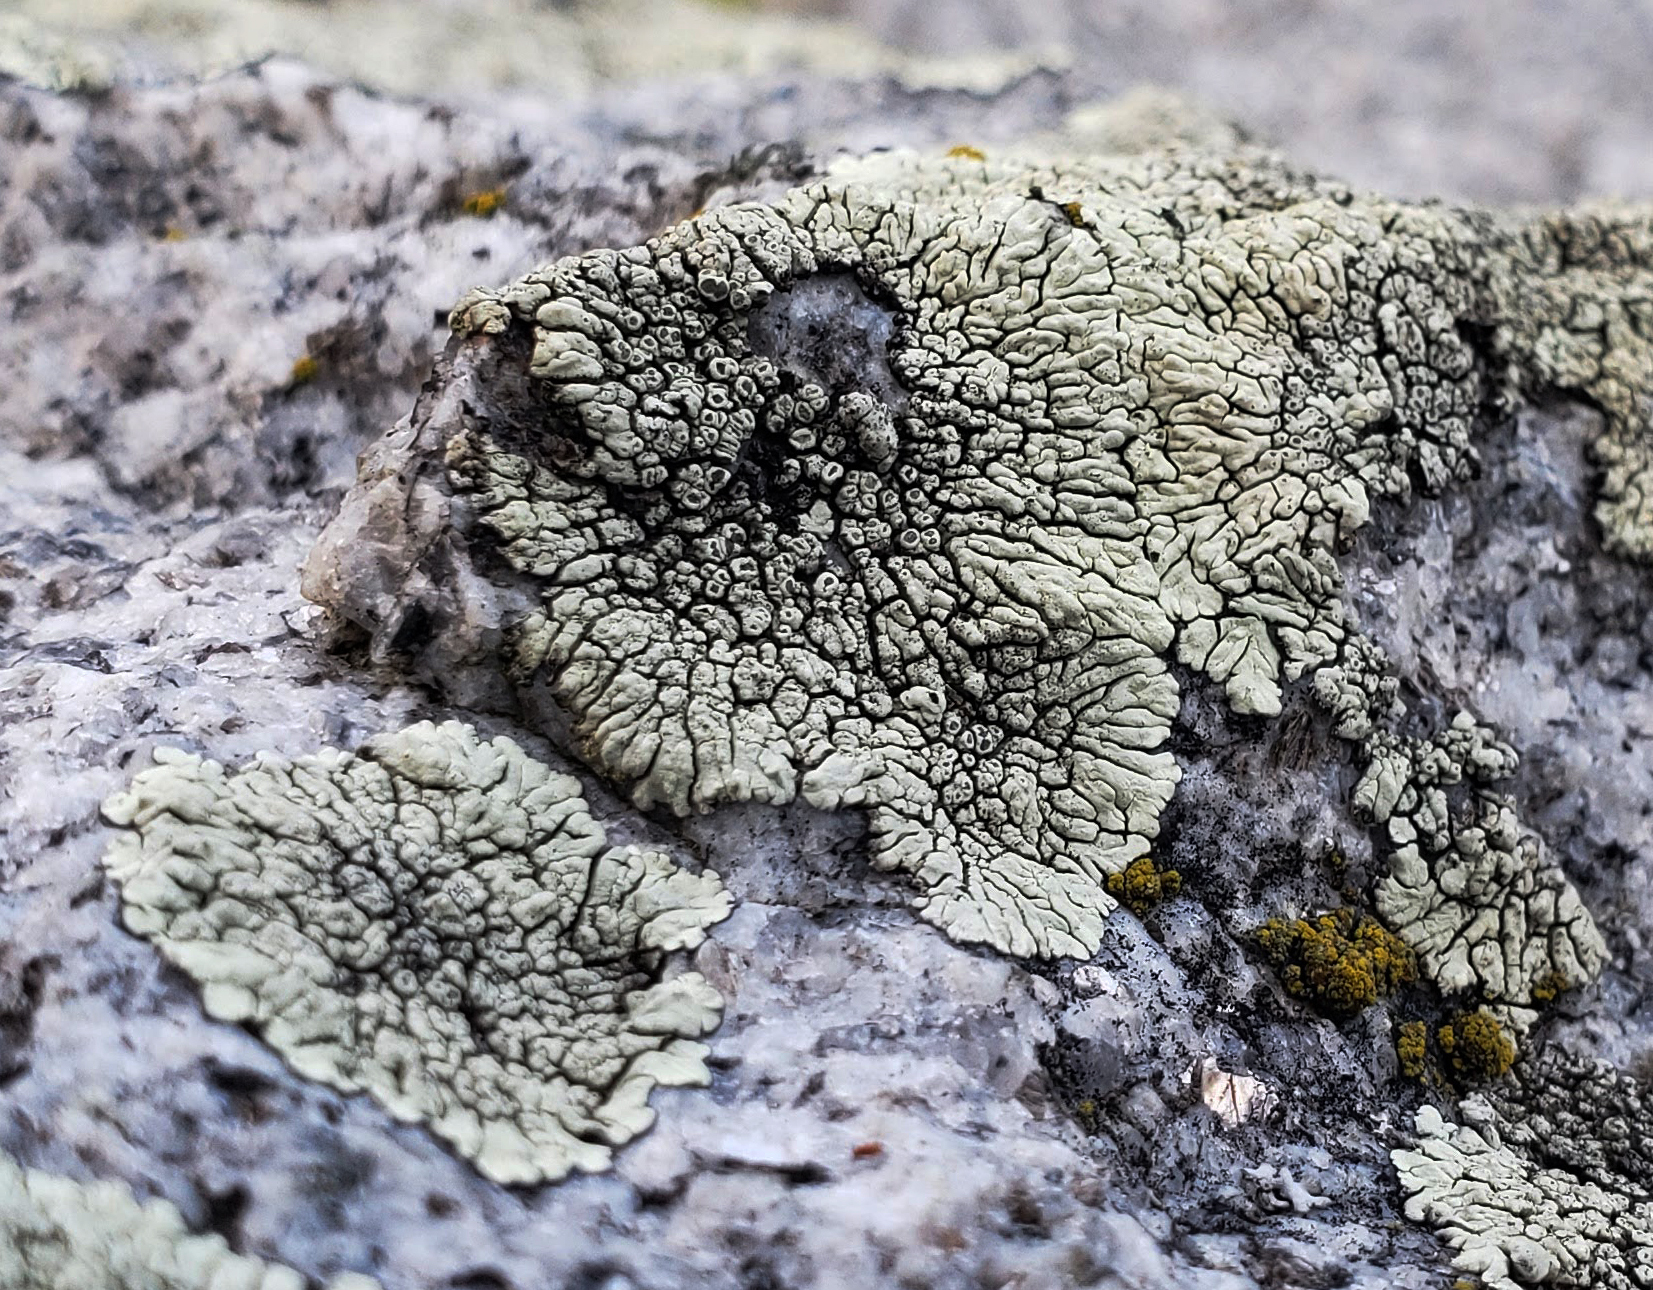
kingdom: Fungi
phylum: Ascomycota
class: Lecanoromycetes
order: Caliciales
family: Caliciaceae
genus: Dimelaena
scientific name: Dimelaena oreina
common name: Golden moonglow lichen
